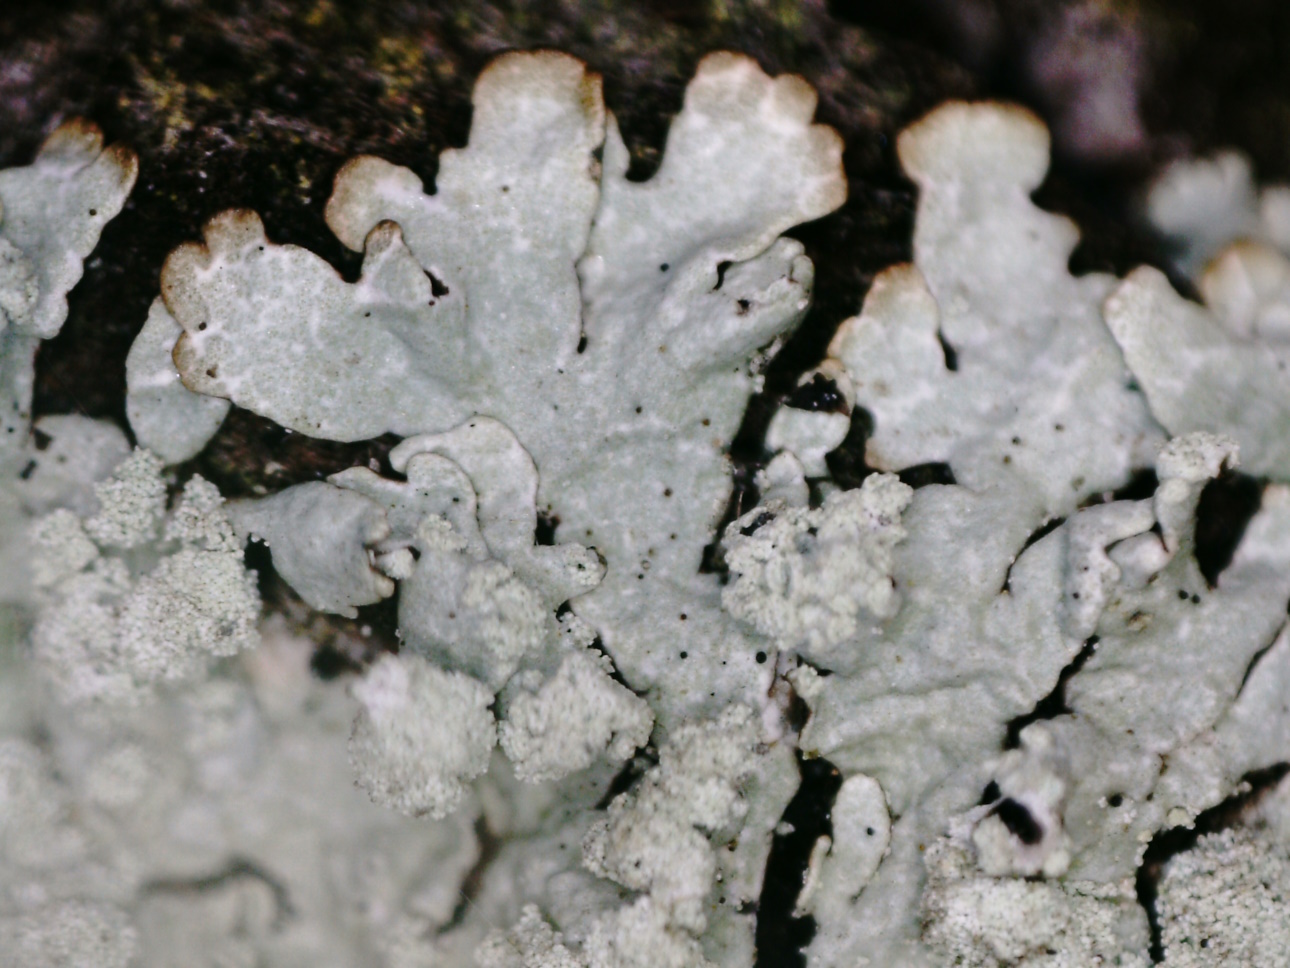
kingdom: Fungi
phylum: Ascomycota
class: Lecanoromycetes
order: Lecanorales
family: Parmeliaceae
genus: Parmeliopsis
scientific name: Parmeliopsis hyperopta
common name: Grey starburst lichen
